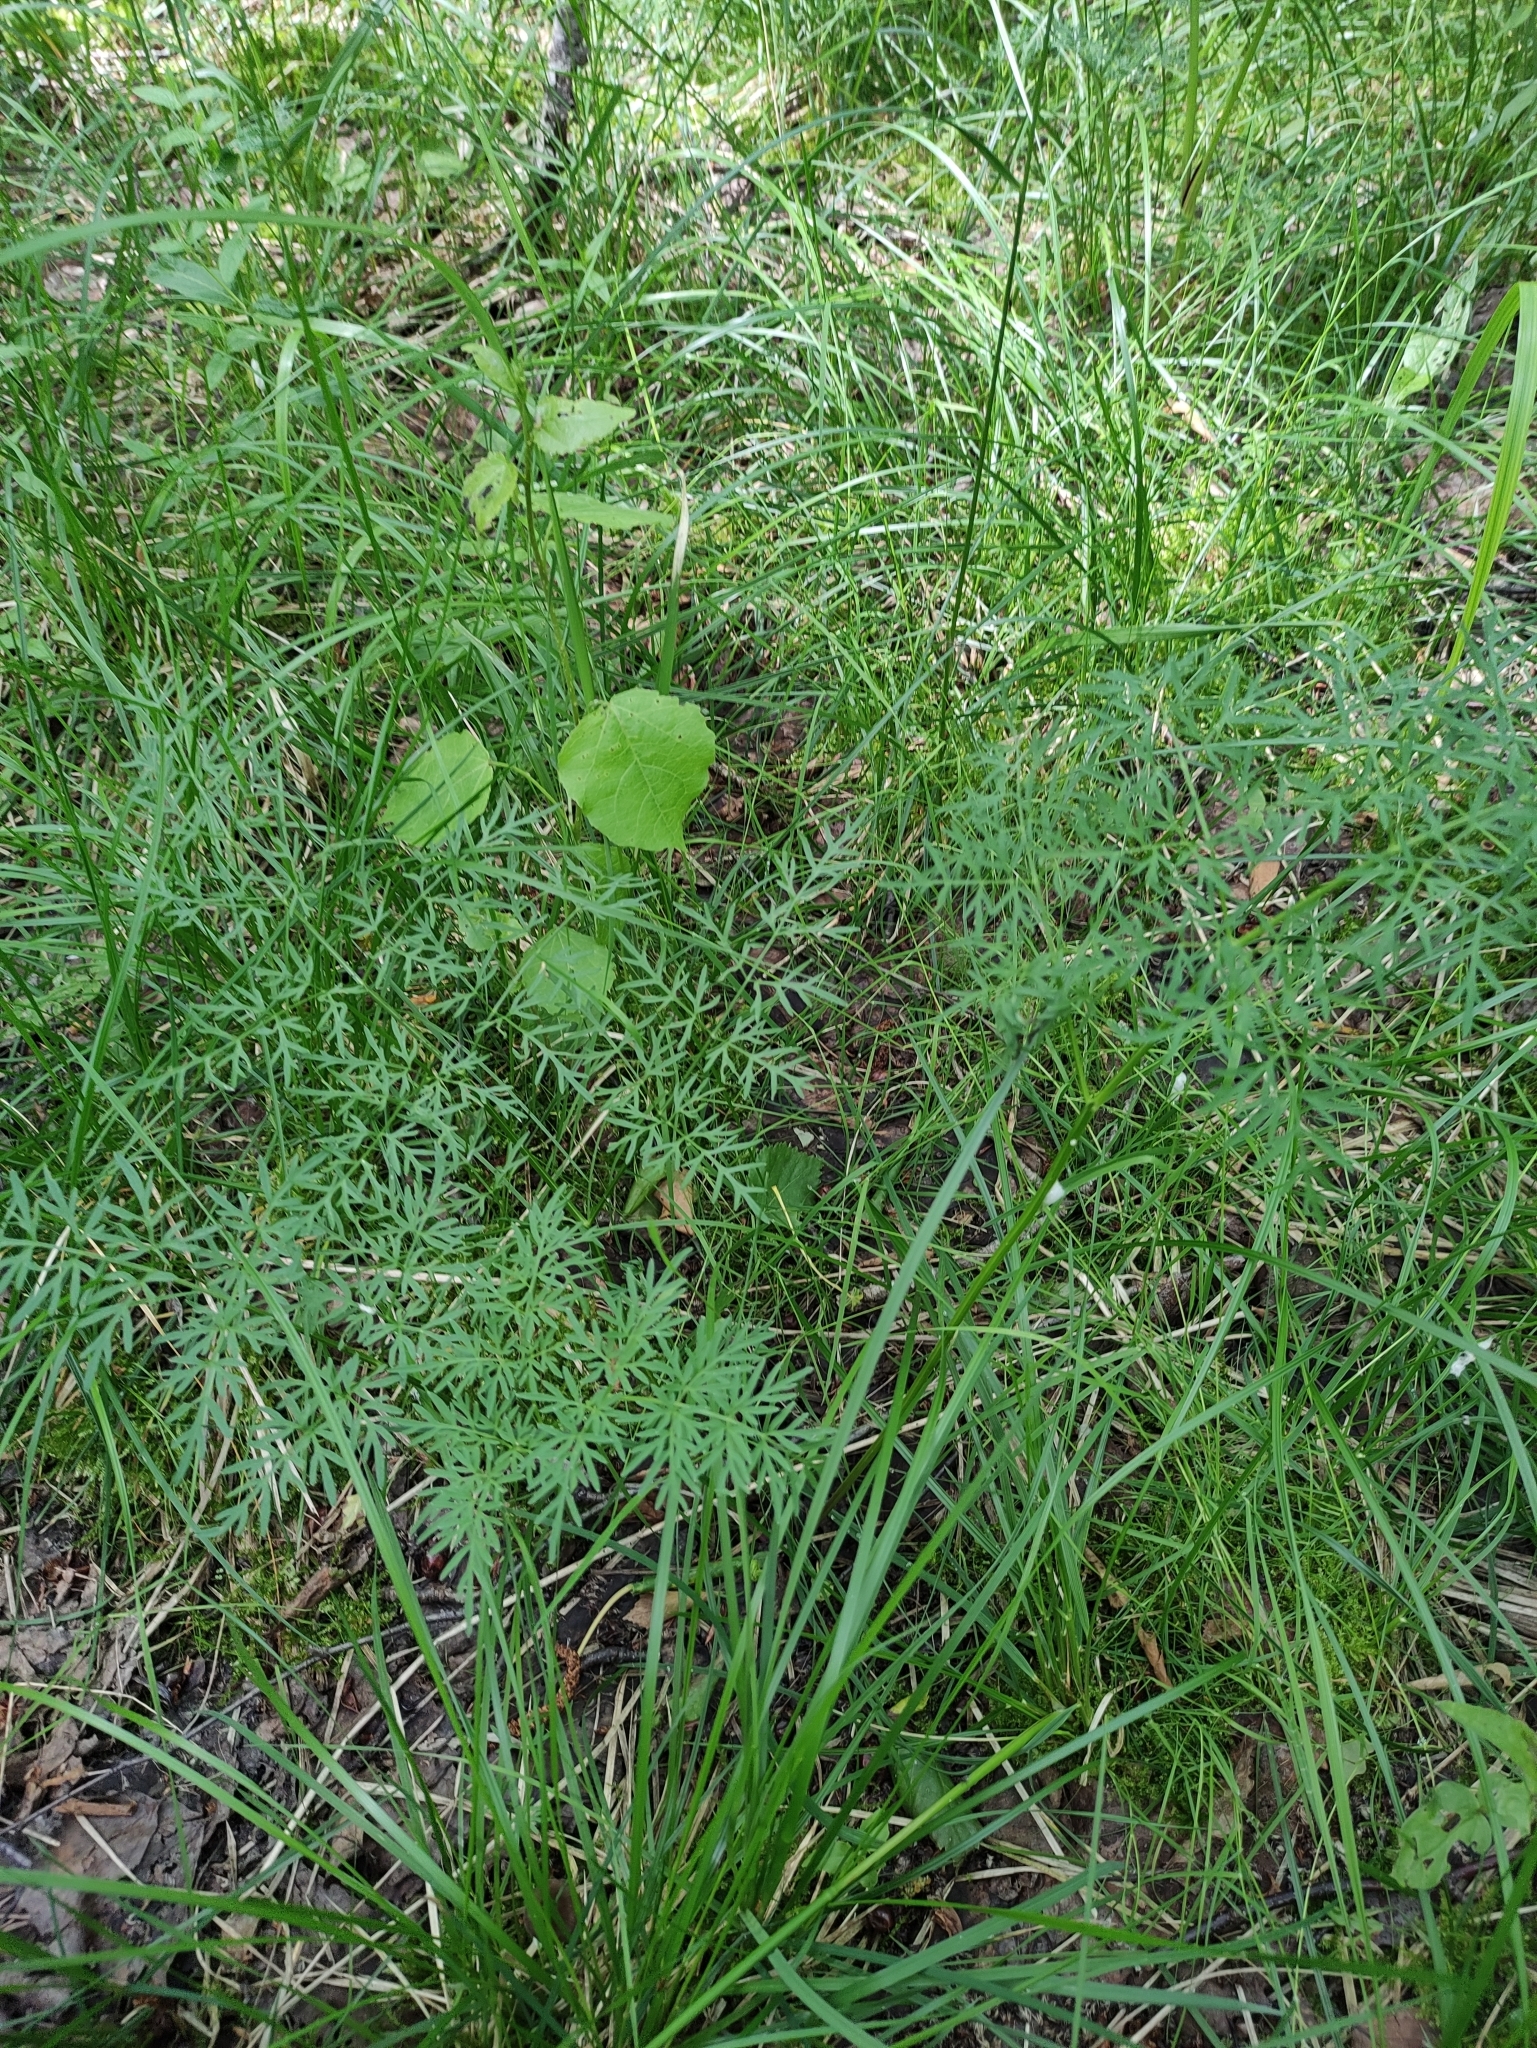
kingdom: Plantae
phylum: Tracheophyta
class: Magnoliopsida
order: Apiales
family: Apiaceae
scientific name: Apiaceae
